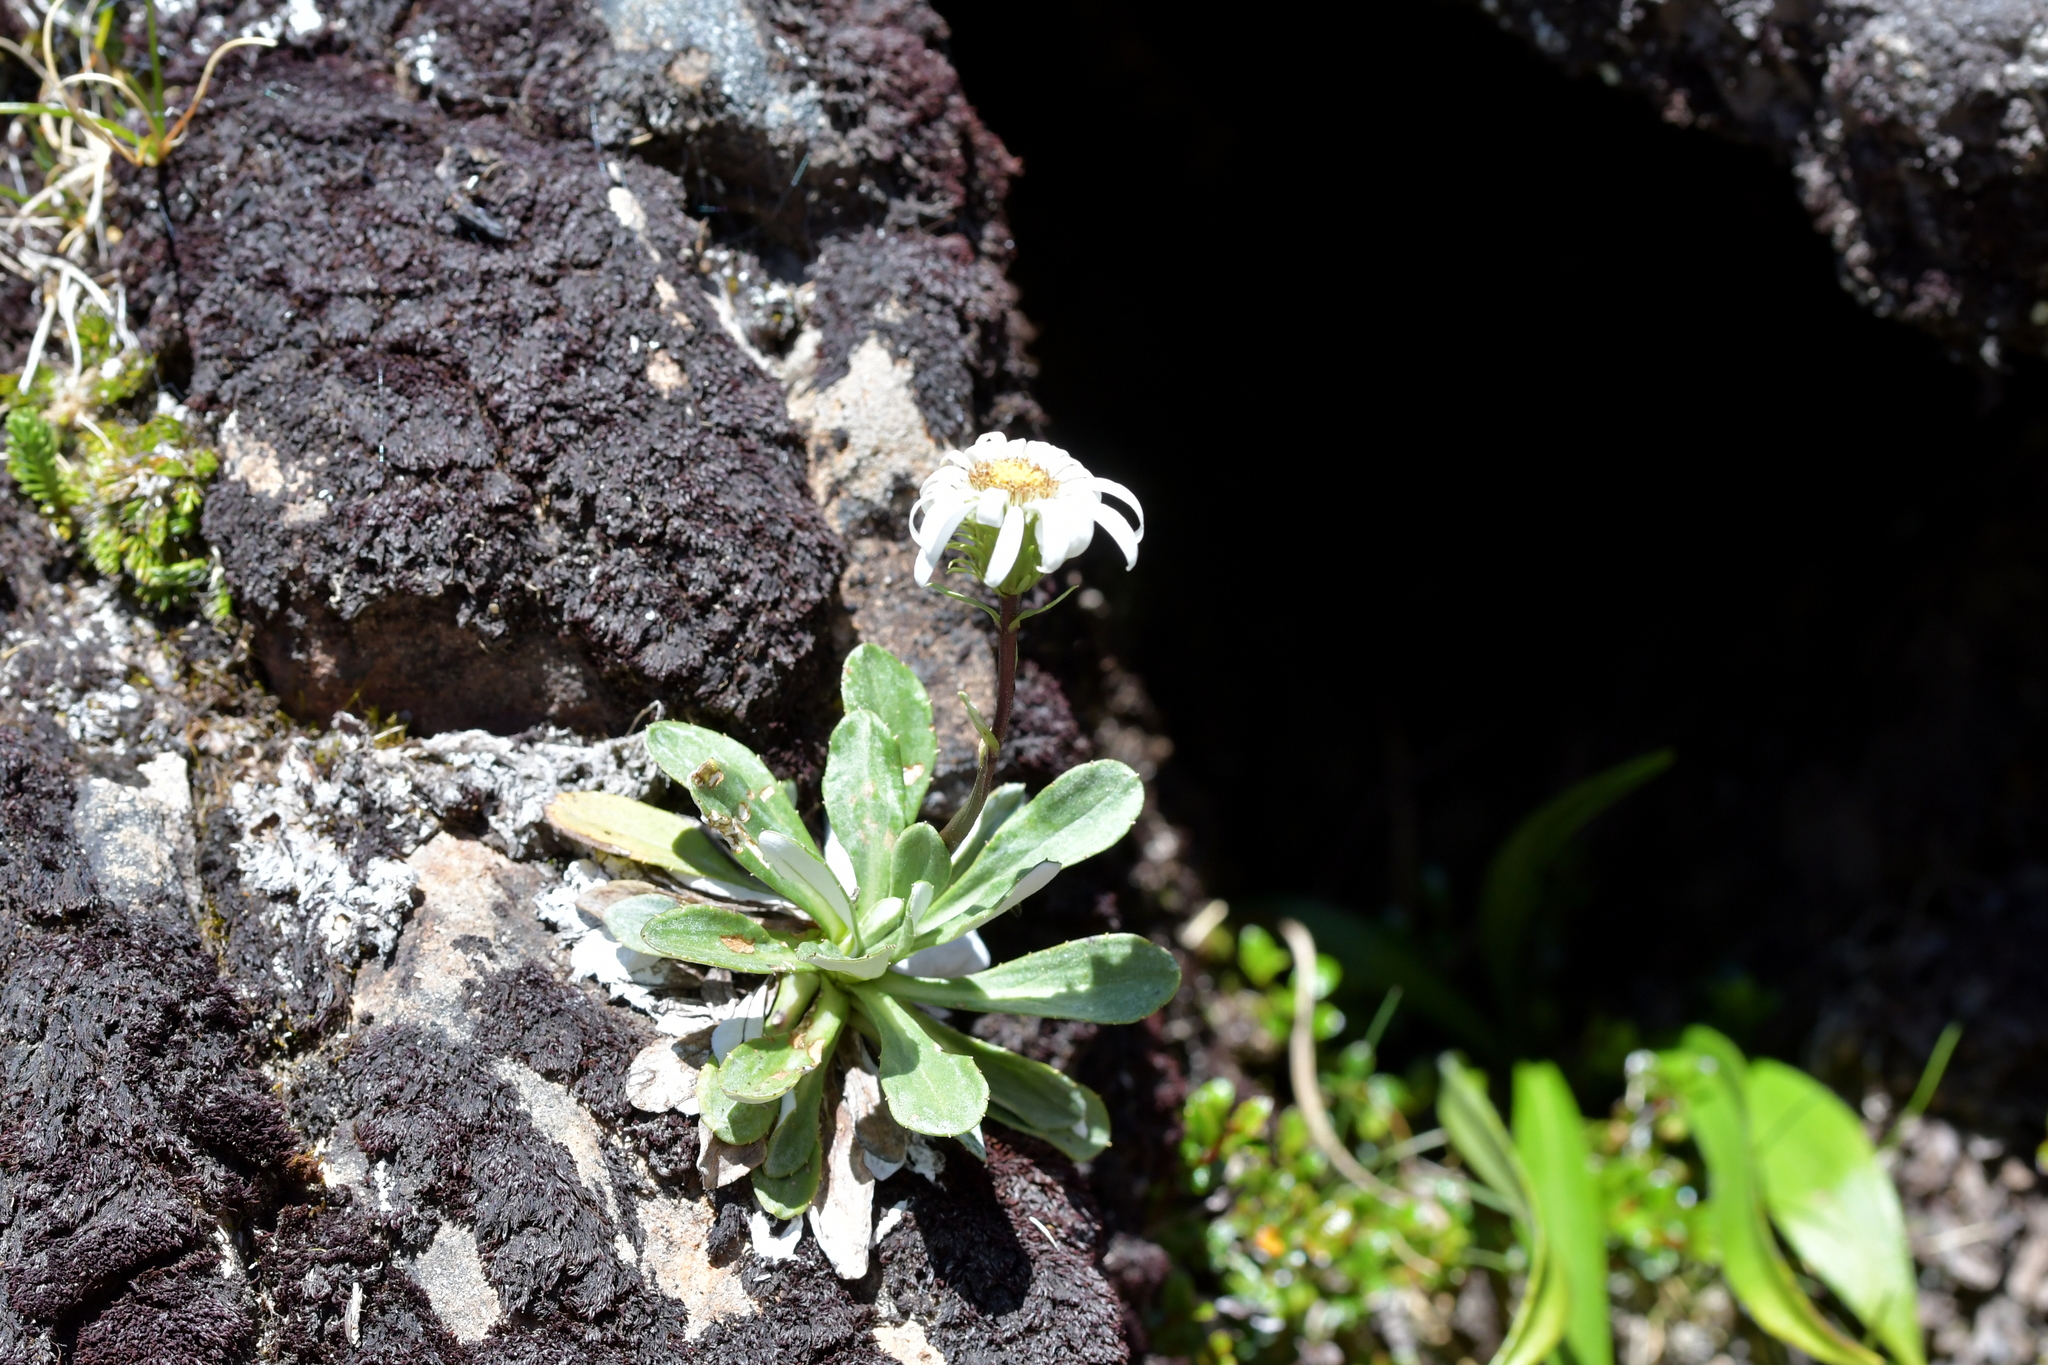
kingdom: Plantae
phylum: Tracheophyta
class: Magnoliopsida
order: Asterales
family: Asteraceae
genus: Celmisia
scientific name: Celmisia durietzii
